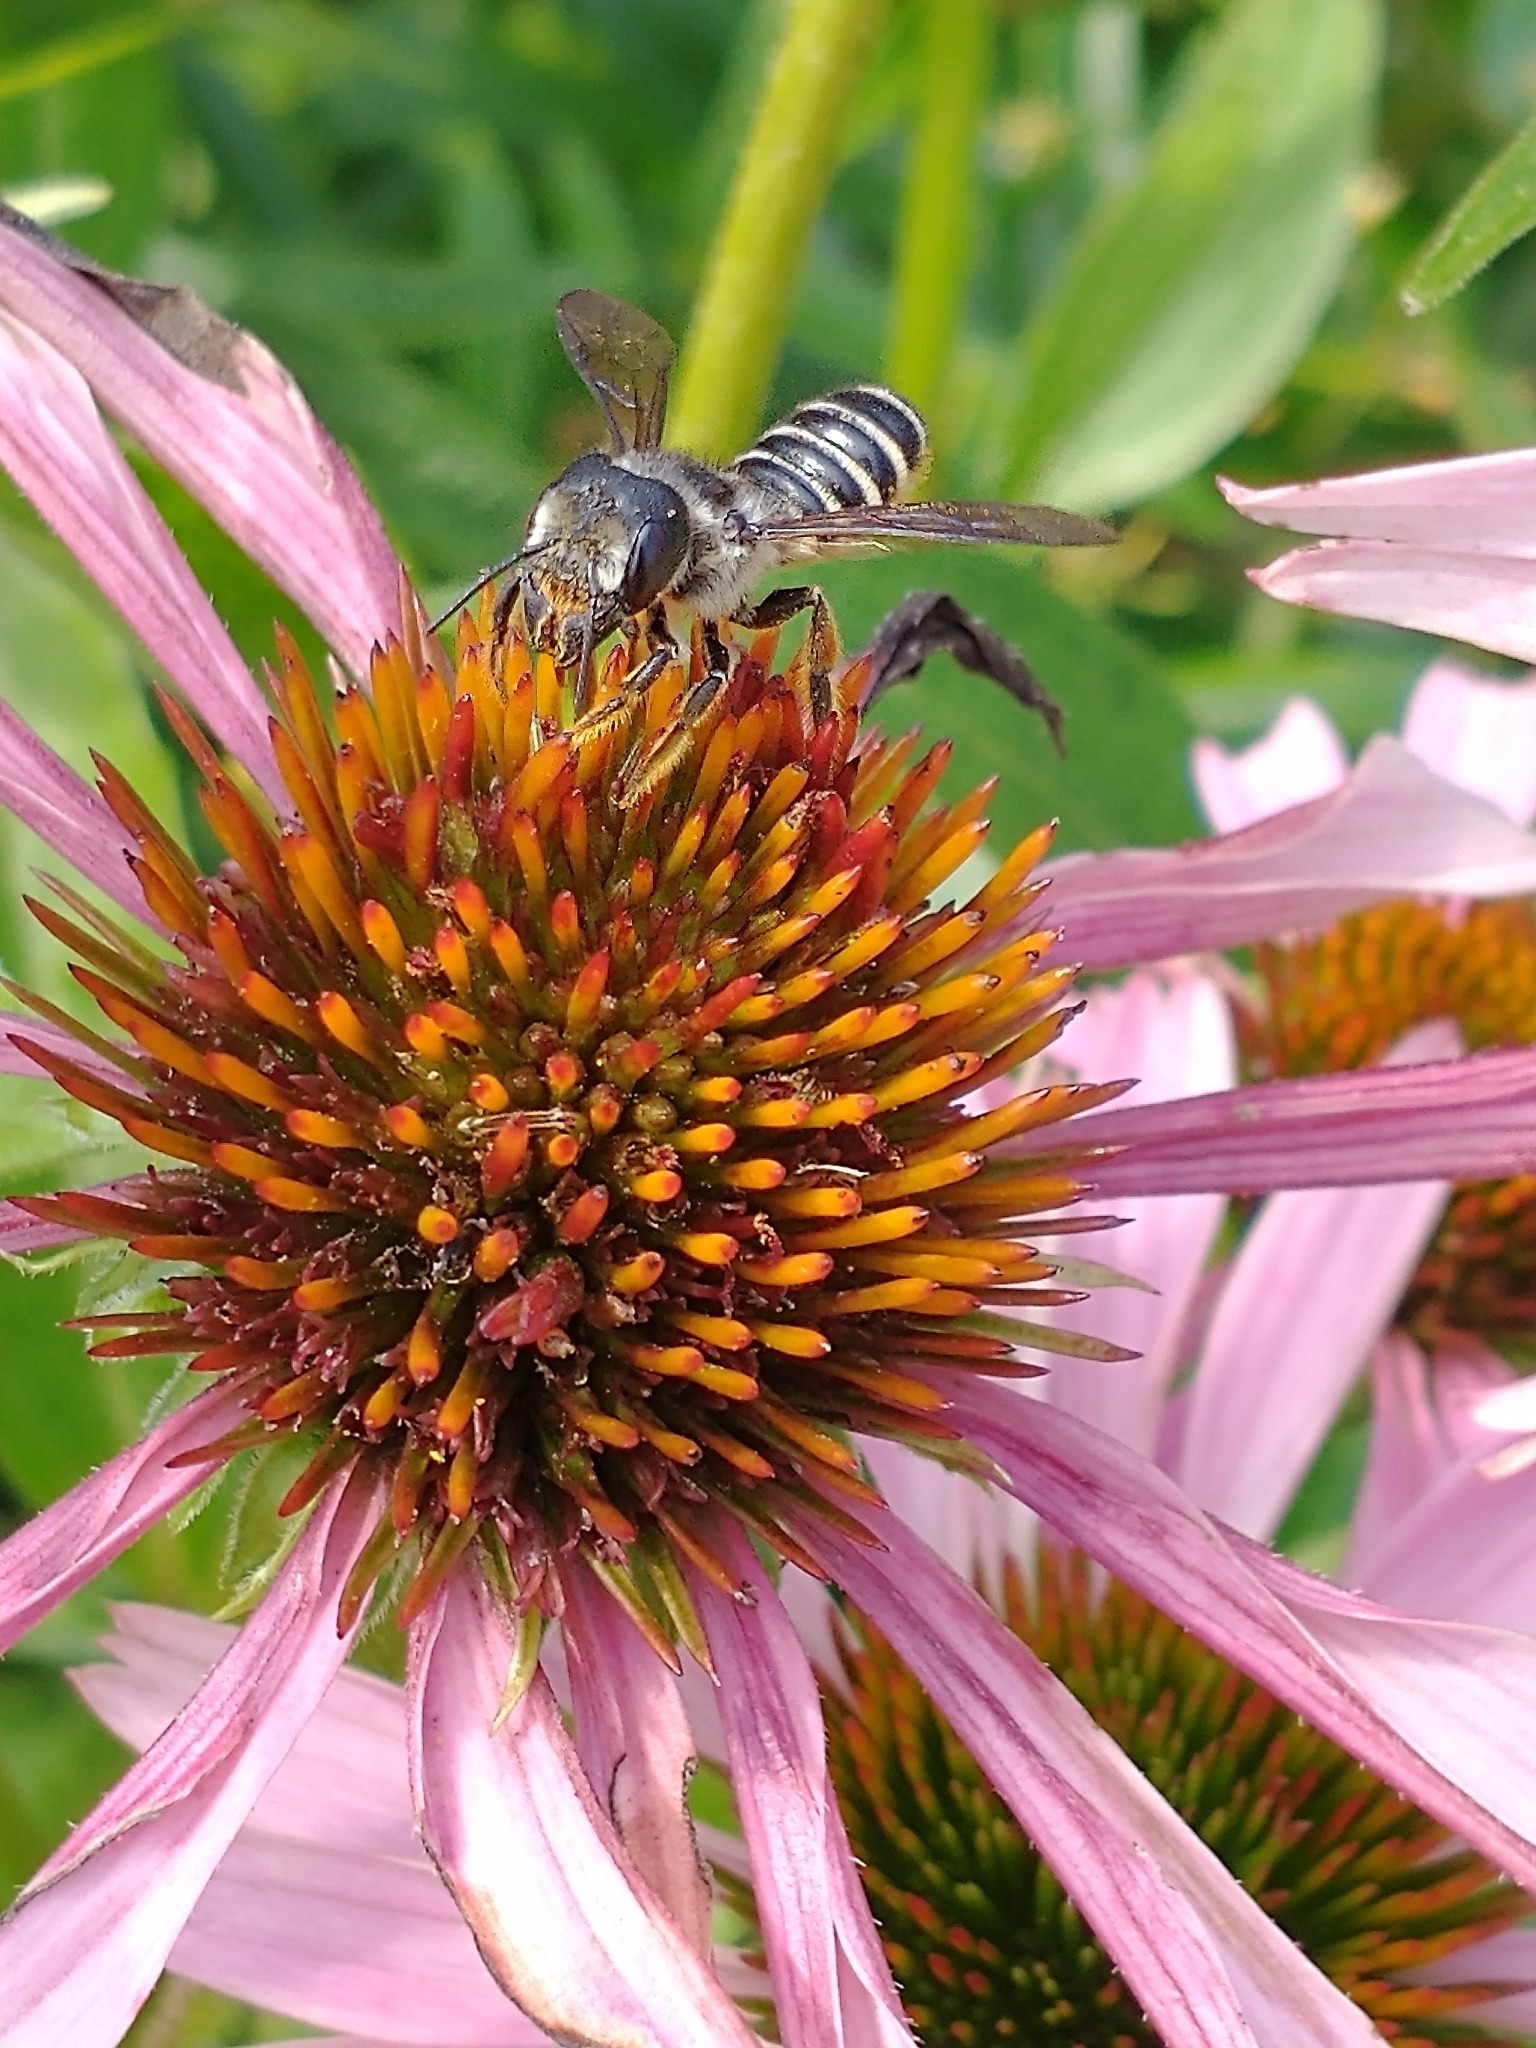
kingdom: Animalia
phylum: Arthropoda
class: Insecta
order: Hymenoptera
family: Megachilidae
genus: Megachile
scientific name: Megachile pugnata
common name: Pugnacious leafcutter bee
